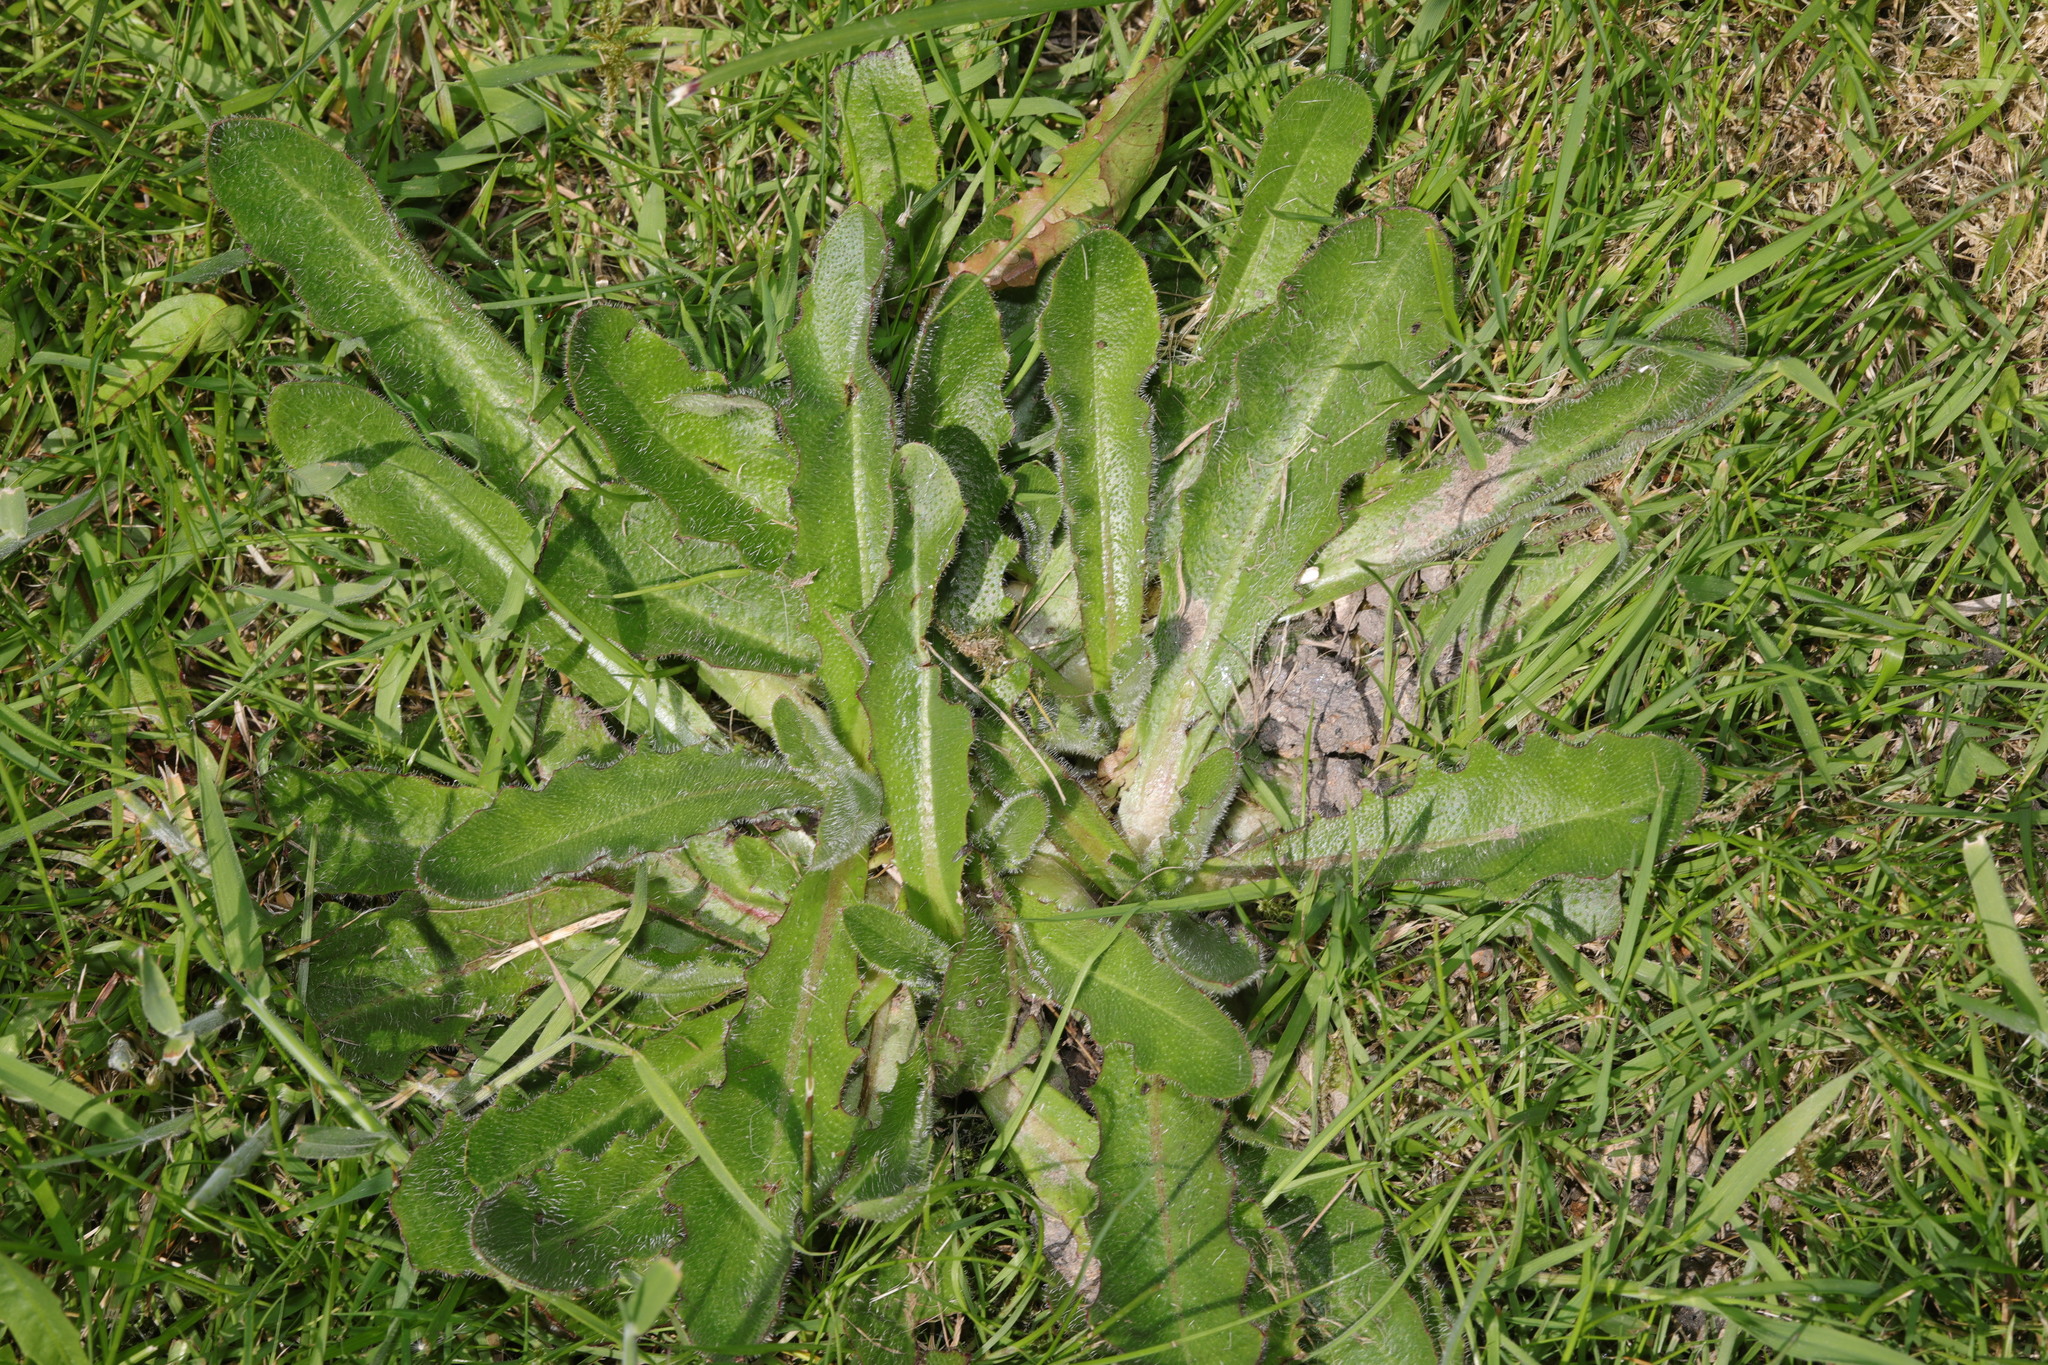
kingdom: Plantae
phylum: Tracheophyta
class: Magnoliopsida
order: Asterales
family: Asteraceae
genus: Hypochaeris
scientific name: Hypochaeris radicata
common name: Flatweed
